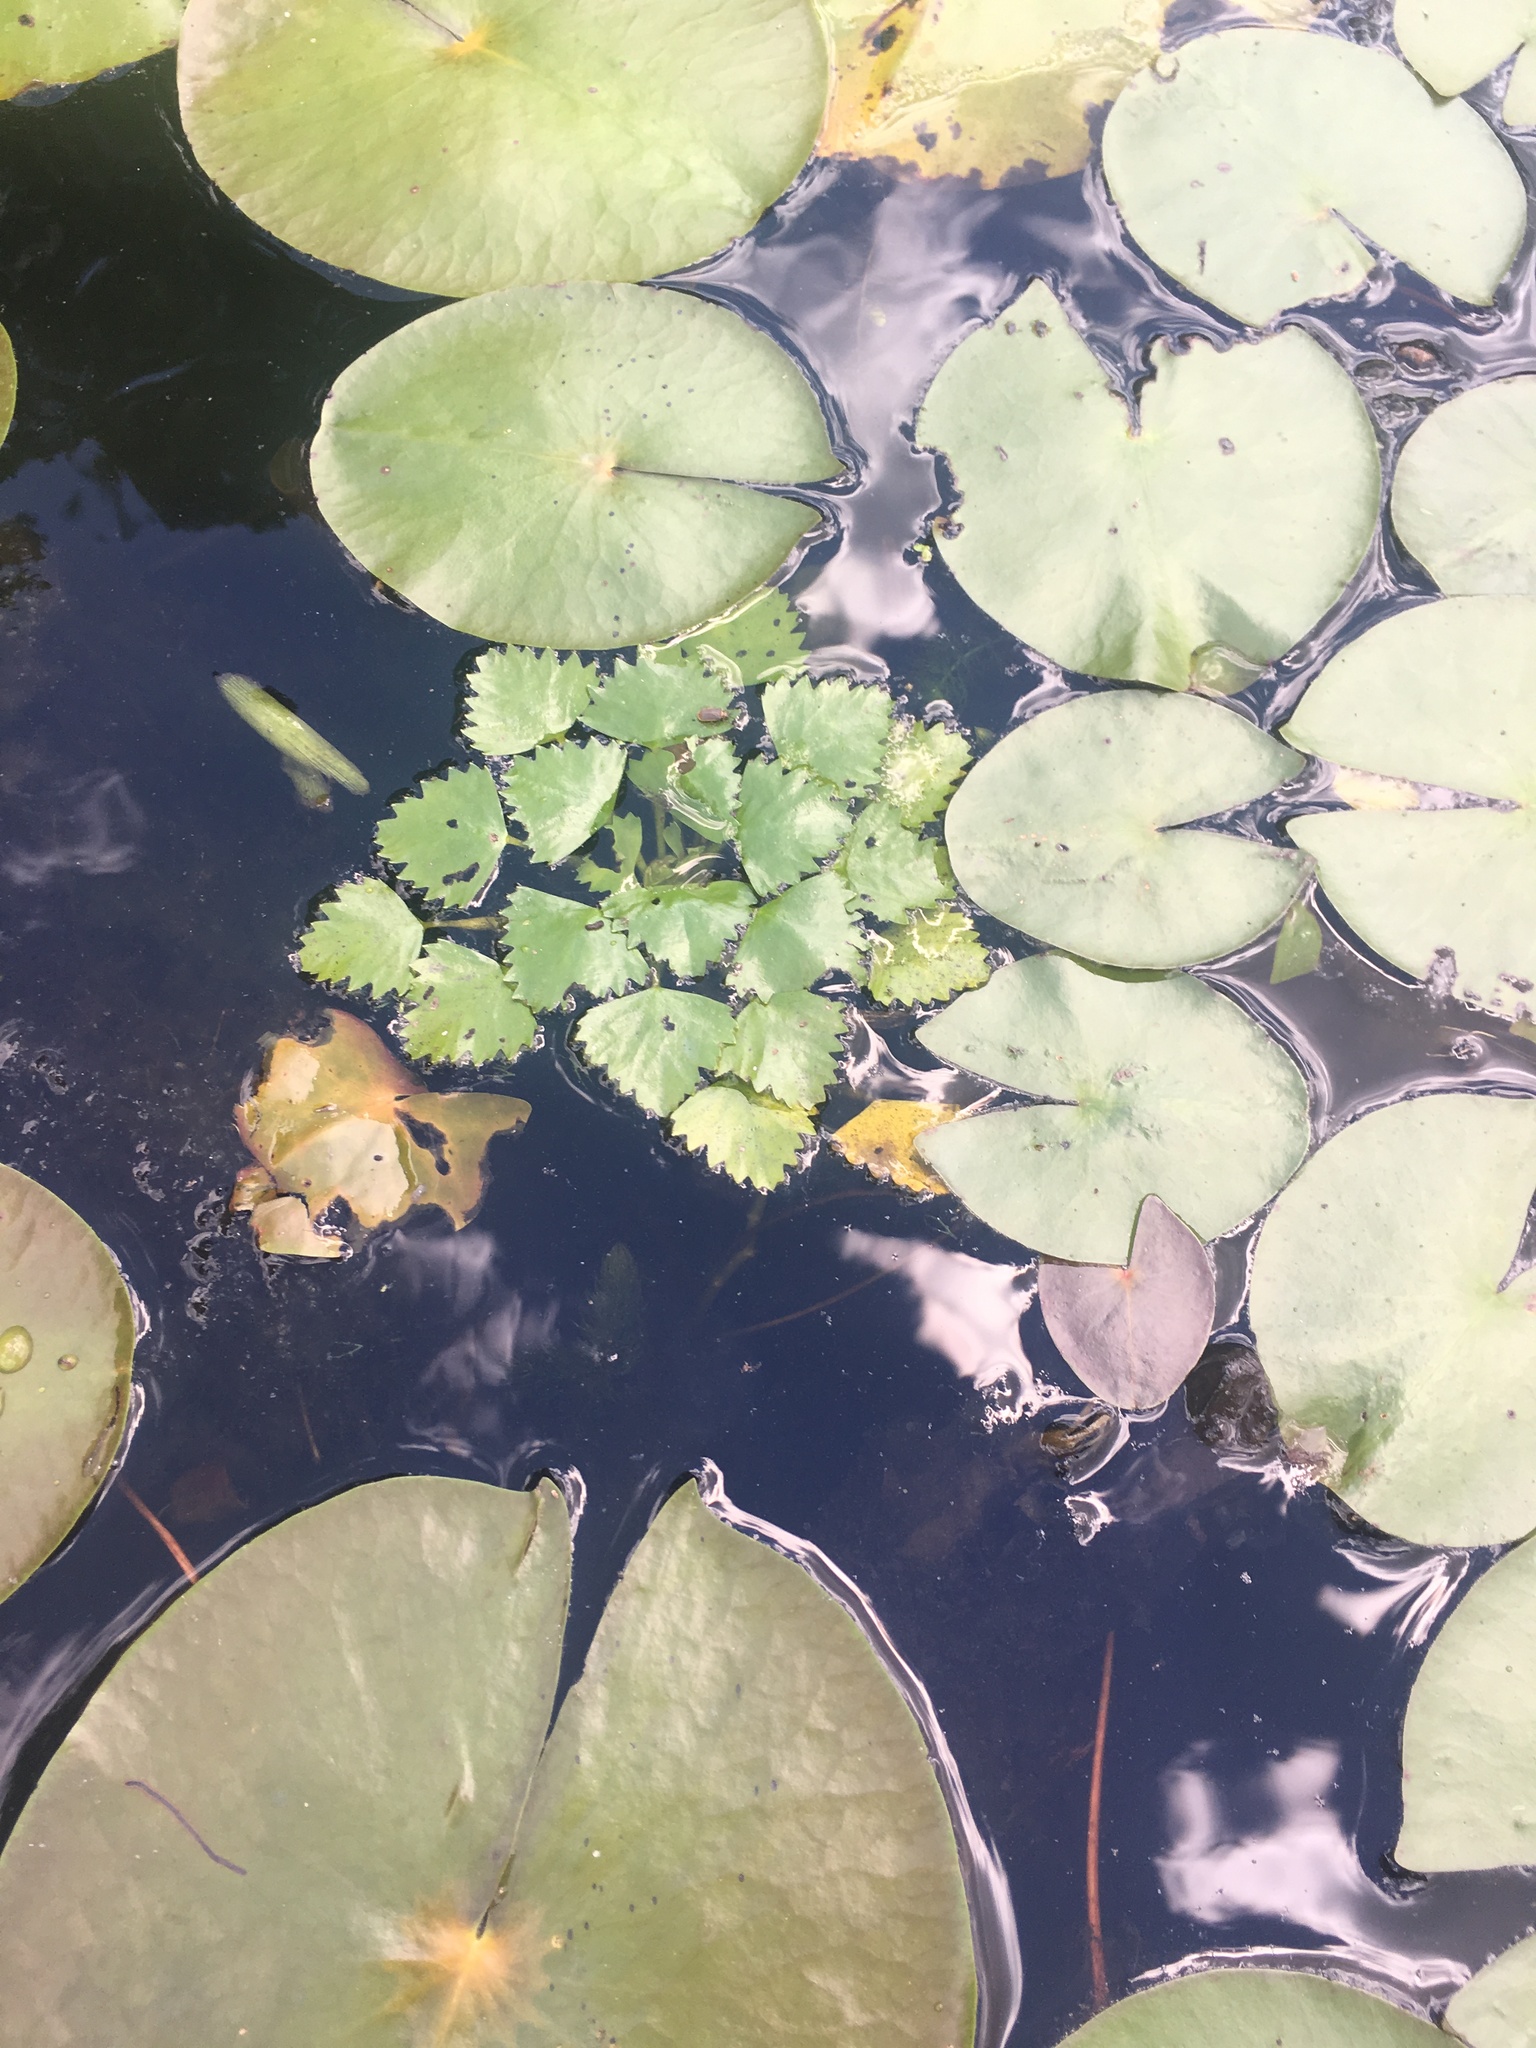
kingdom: Plantae
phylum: Tracheophyta
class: Magnoliopsida
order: Myrtales
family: Lythraceae
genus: Trapa
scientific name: Trapa natans
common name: Water chestnut
